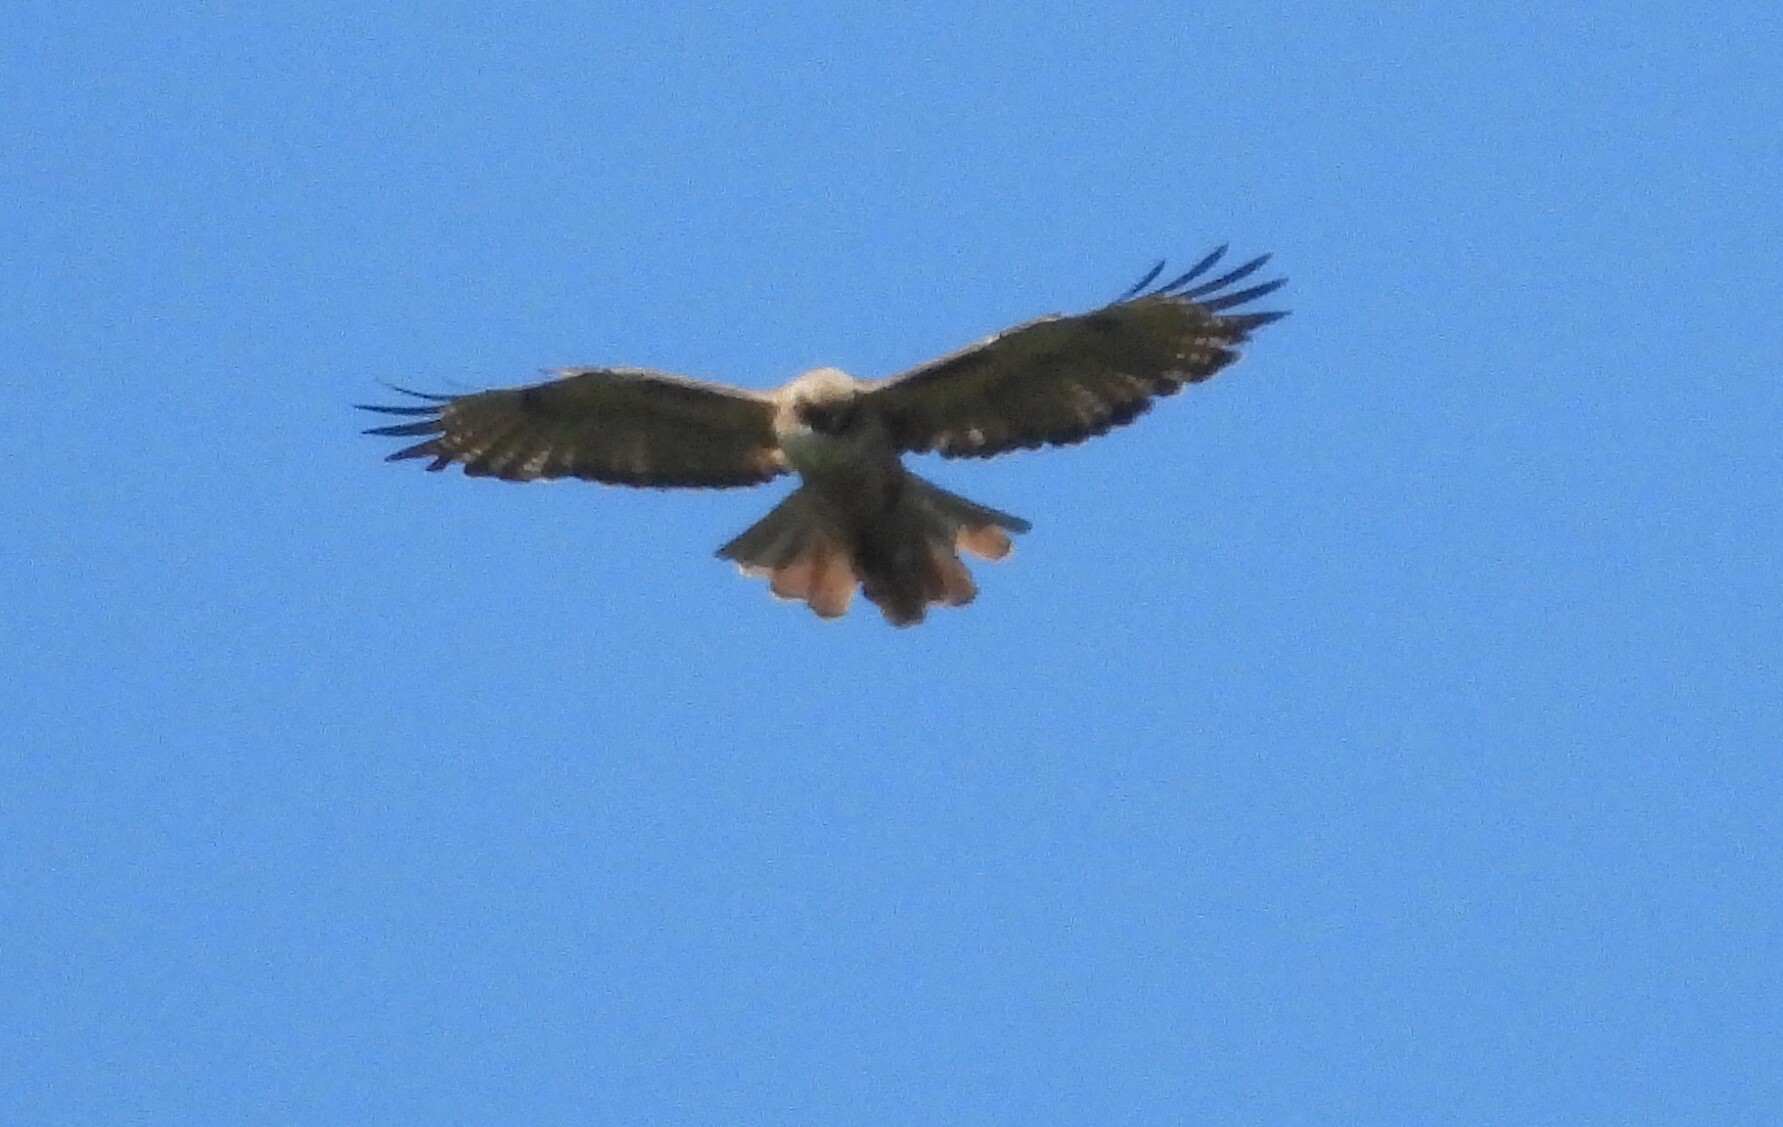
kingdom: Animalia
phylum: Chordata
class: Aves
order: Accipitriformes
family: Accipitridae
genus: Buteo
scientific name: Buteo jamaicensis
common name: Red-tailed hawk
